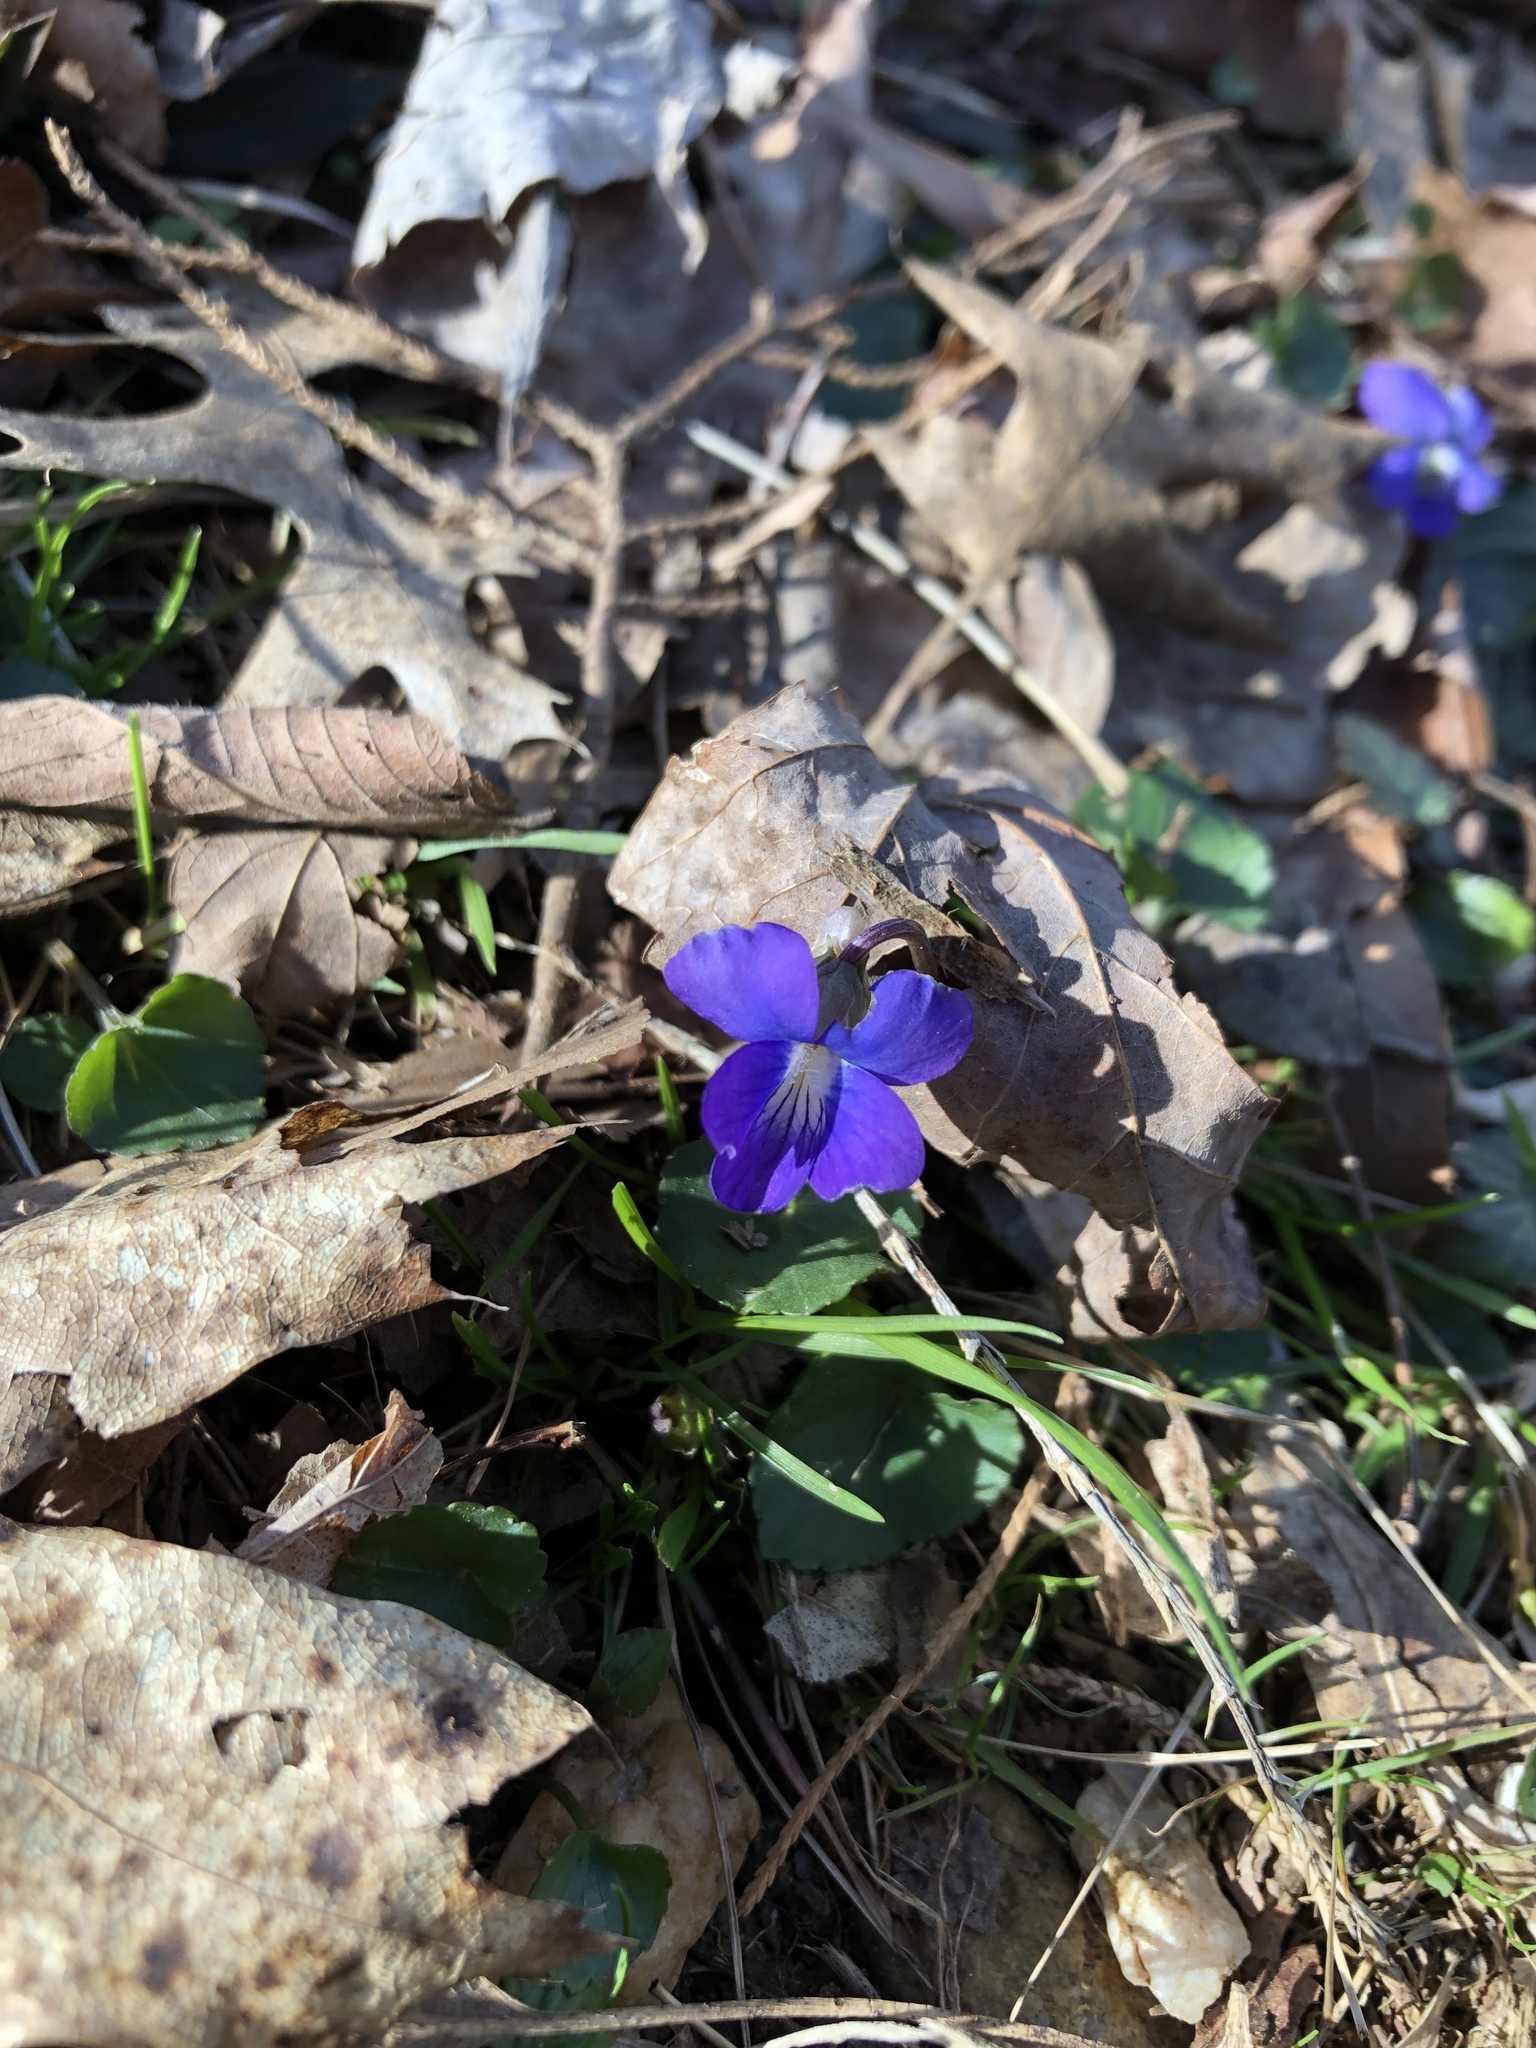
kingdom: Plantae
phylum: Tracheophyta
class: Magnoliopsida
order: Malpighiales
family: Violaceae
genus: Viola
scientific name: Viola sororia
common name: Dooryard violet
